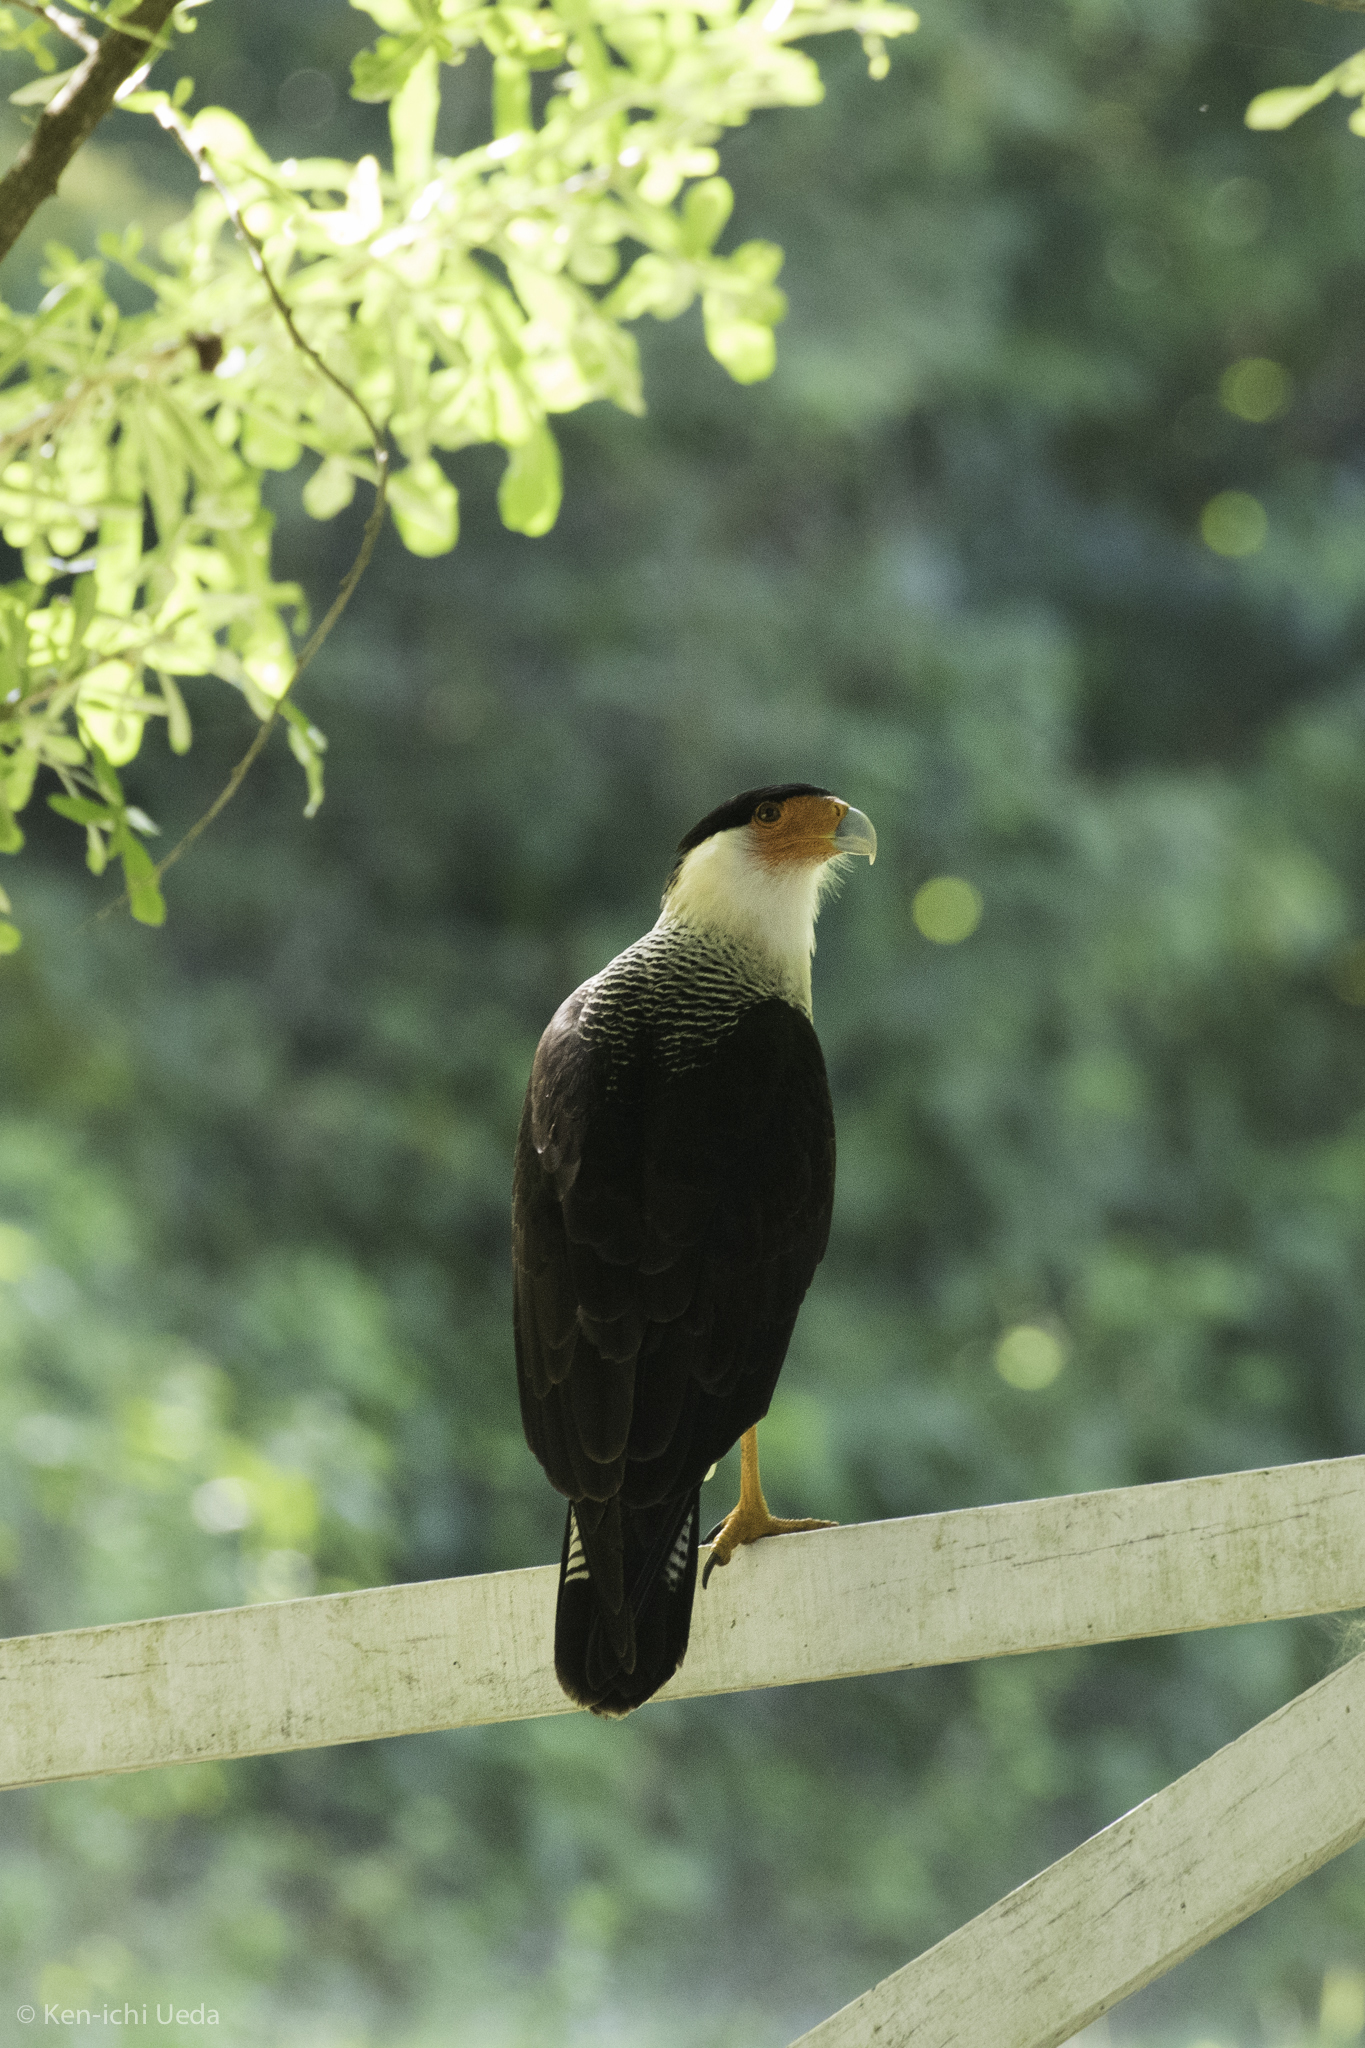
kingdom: Animalia
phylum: Chordata
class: Aves
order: Falconiformes
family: Falconidae
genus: Caracara
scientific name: Caracara plancus
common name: Southern caracara
